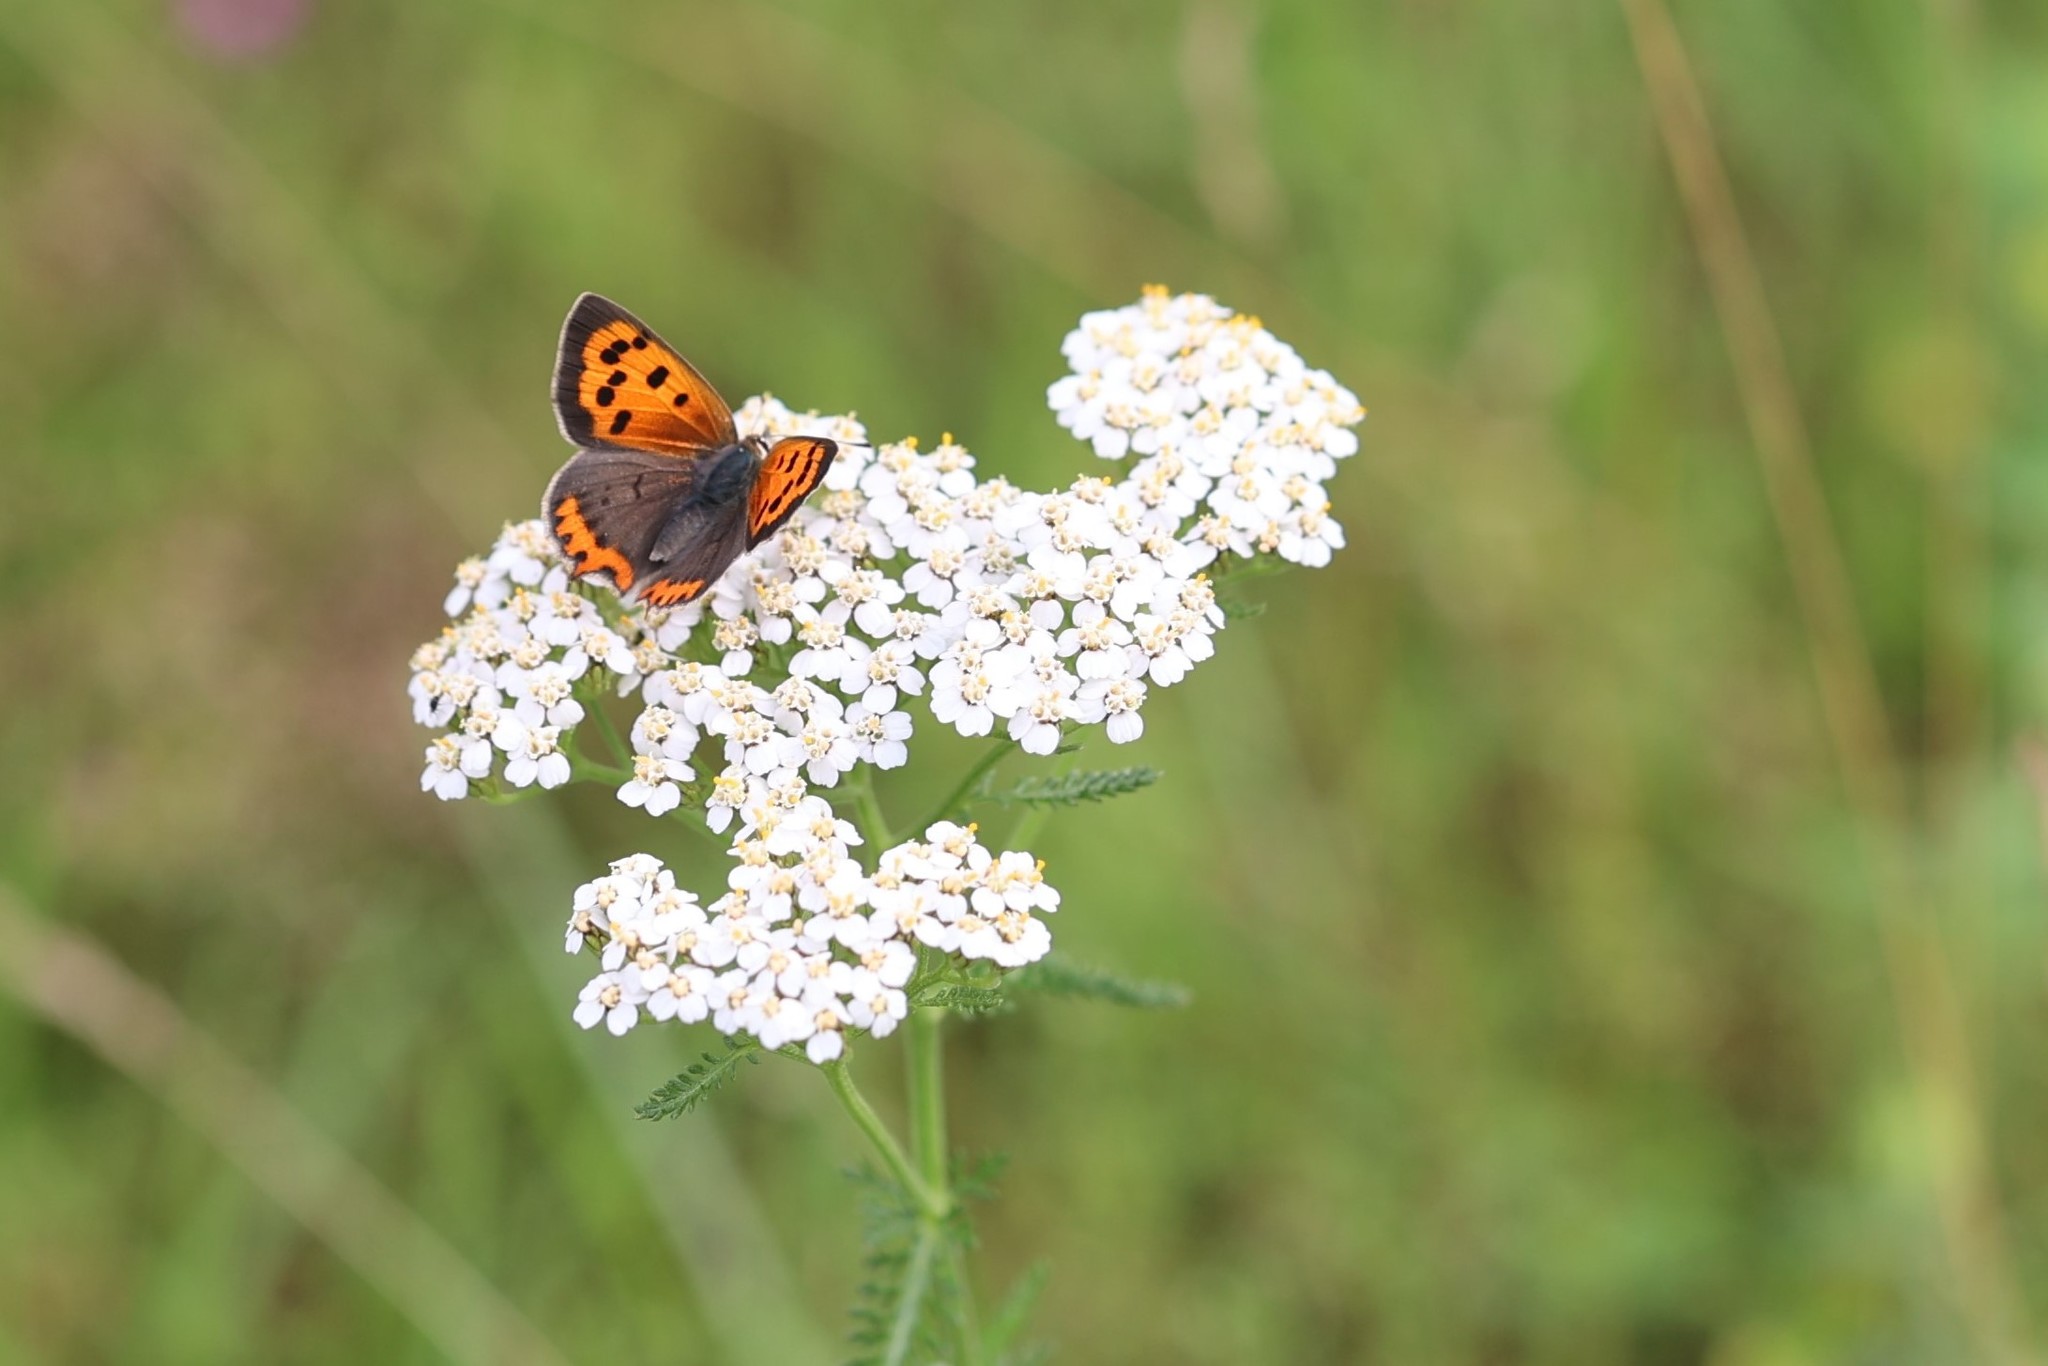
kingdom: Animalia
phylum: Arthropoda
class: Insecta
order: Lepidoptera
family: Lycaenidae
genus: Lycaena
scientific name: Lycaena phlaeas
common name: Small copper
